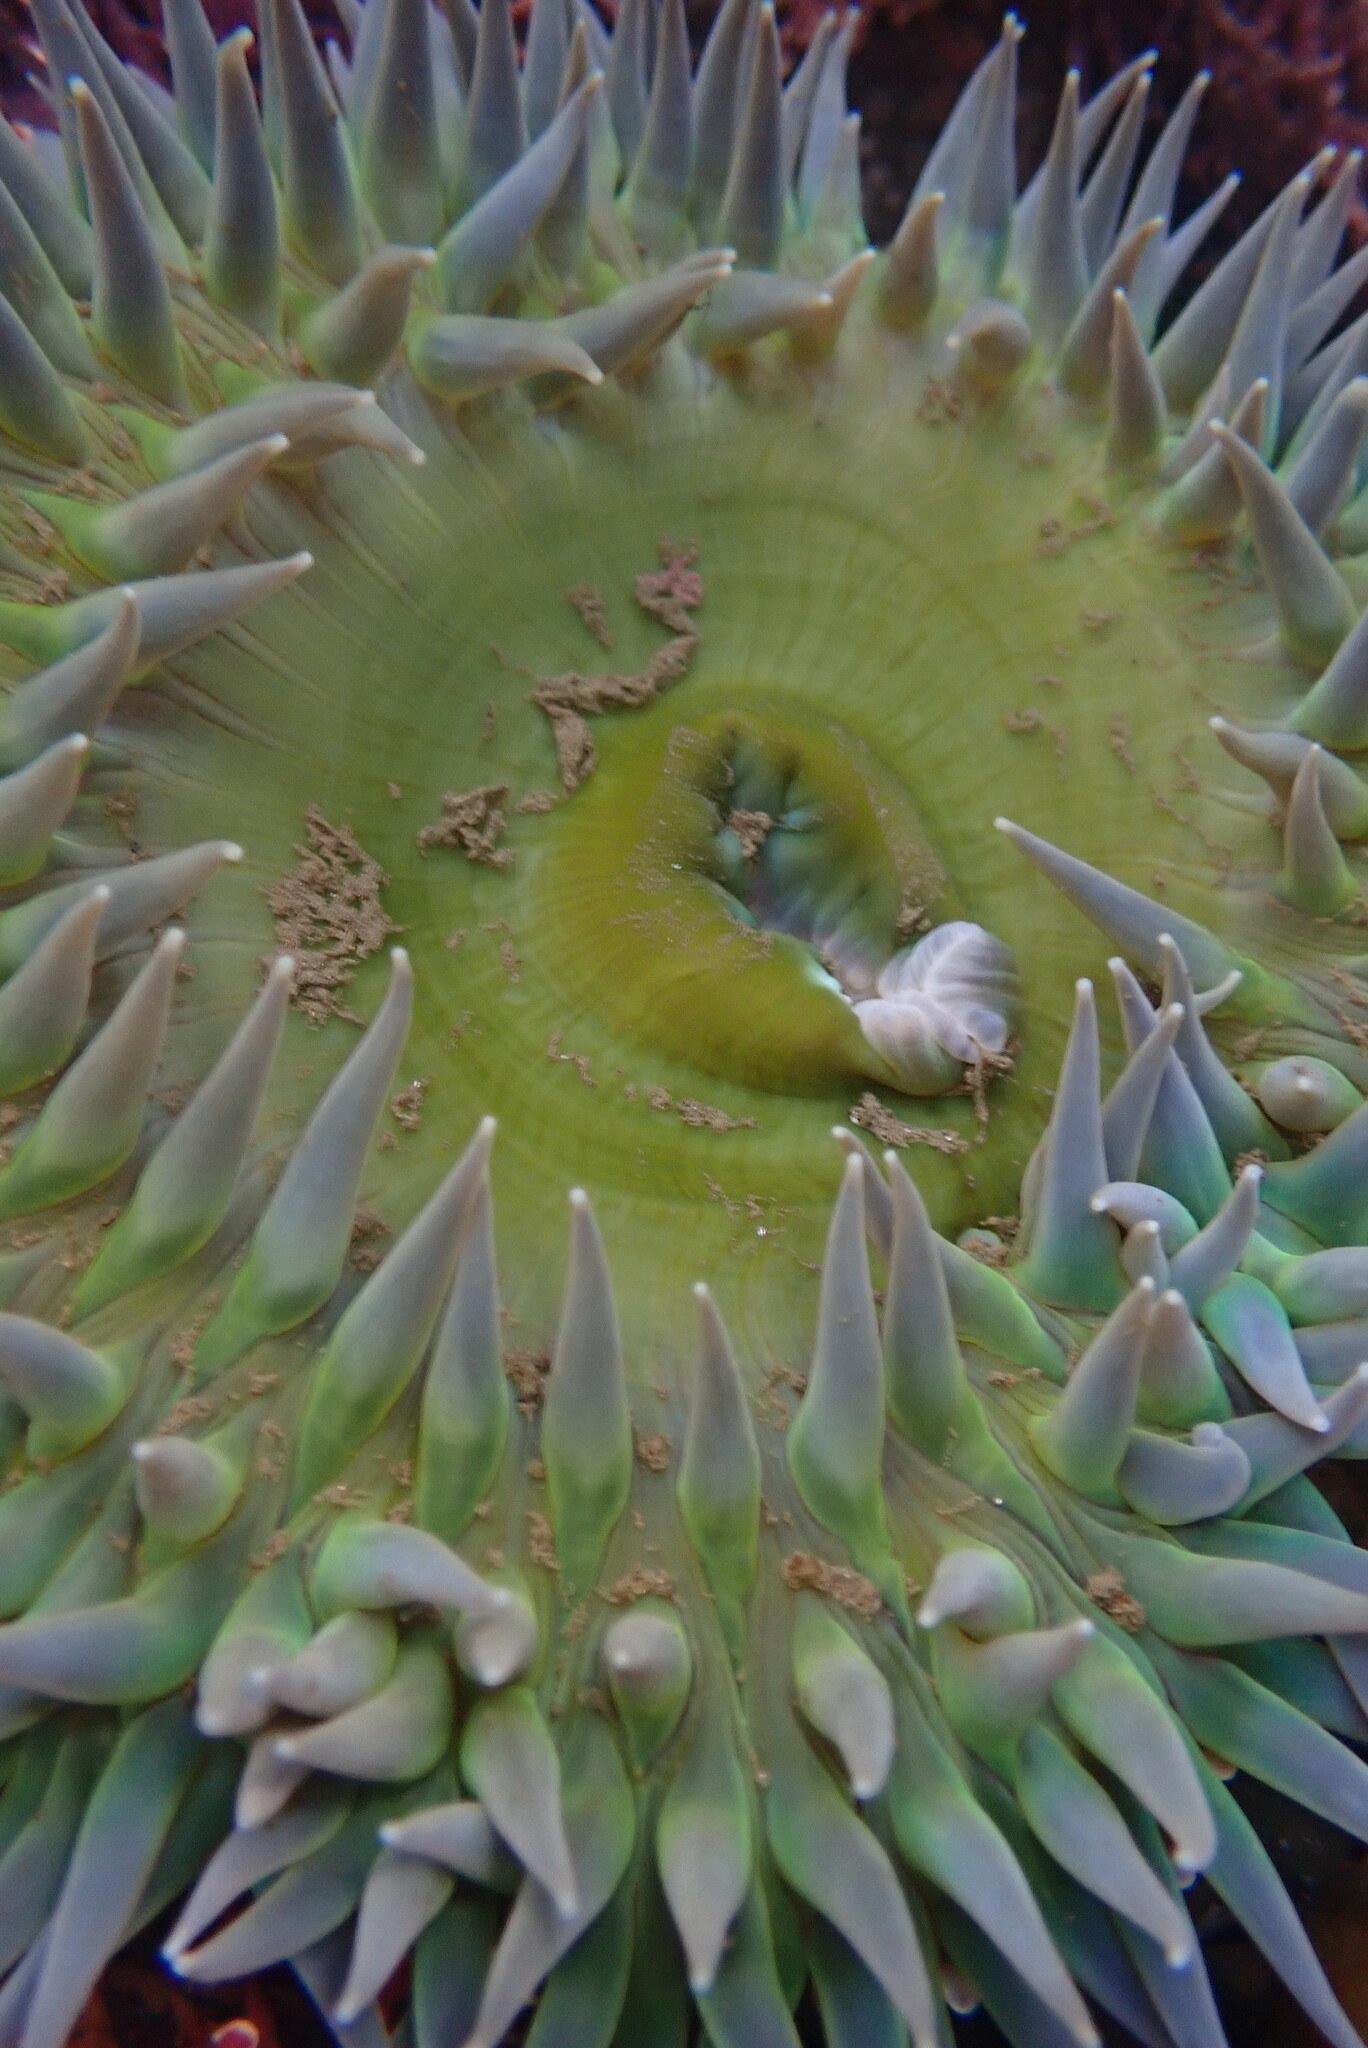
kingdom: Animalia
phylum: Cnidaria
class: Anthozoa
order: Actiniaria
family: Actiniidae
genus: Anthopleura
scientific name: Anthopleura xanthogrammica
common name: Giant green anemone
